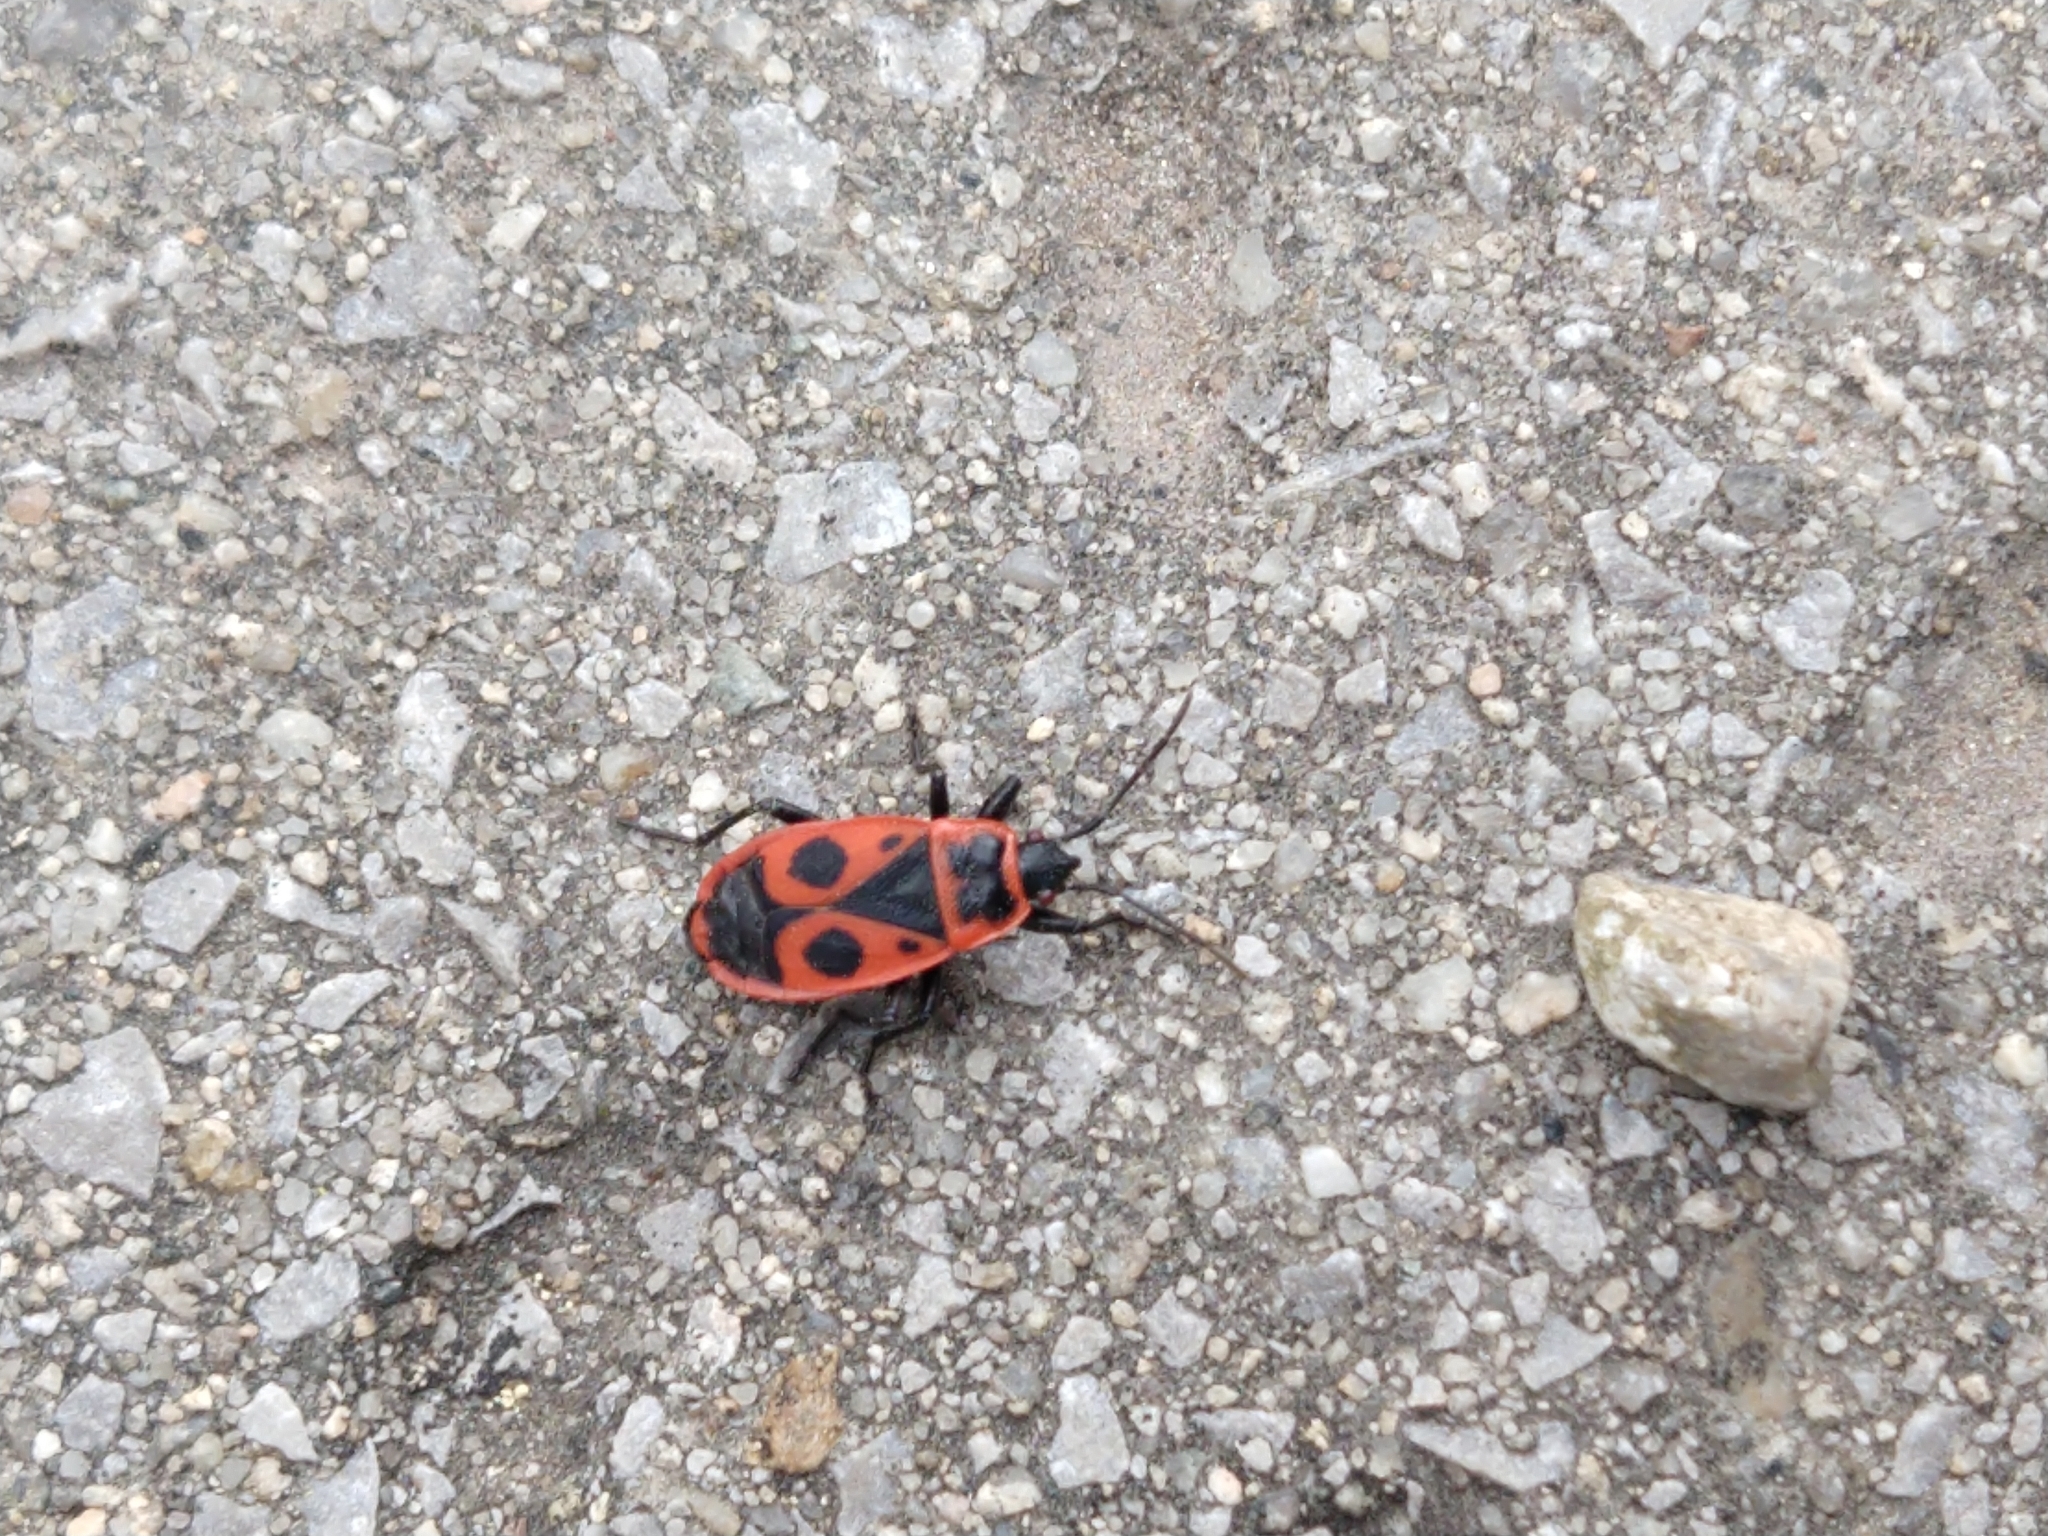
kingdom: Animalia
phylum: Arthropoda
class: Insecta
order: Hemiptera
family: Pyrrhocoridae
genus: Pyrrhocoris
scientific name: Pyrrhocoris apterus
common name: Firebug
